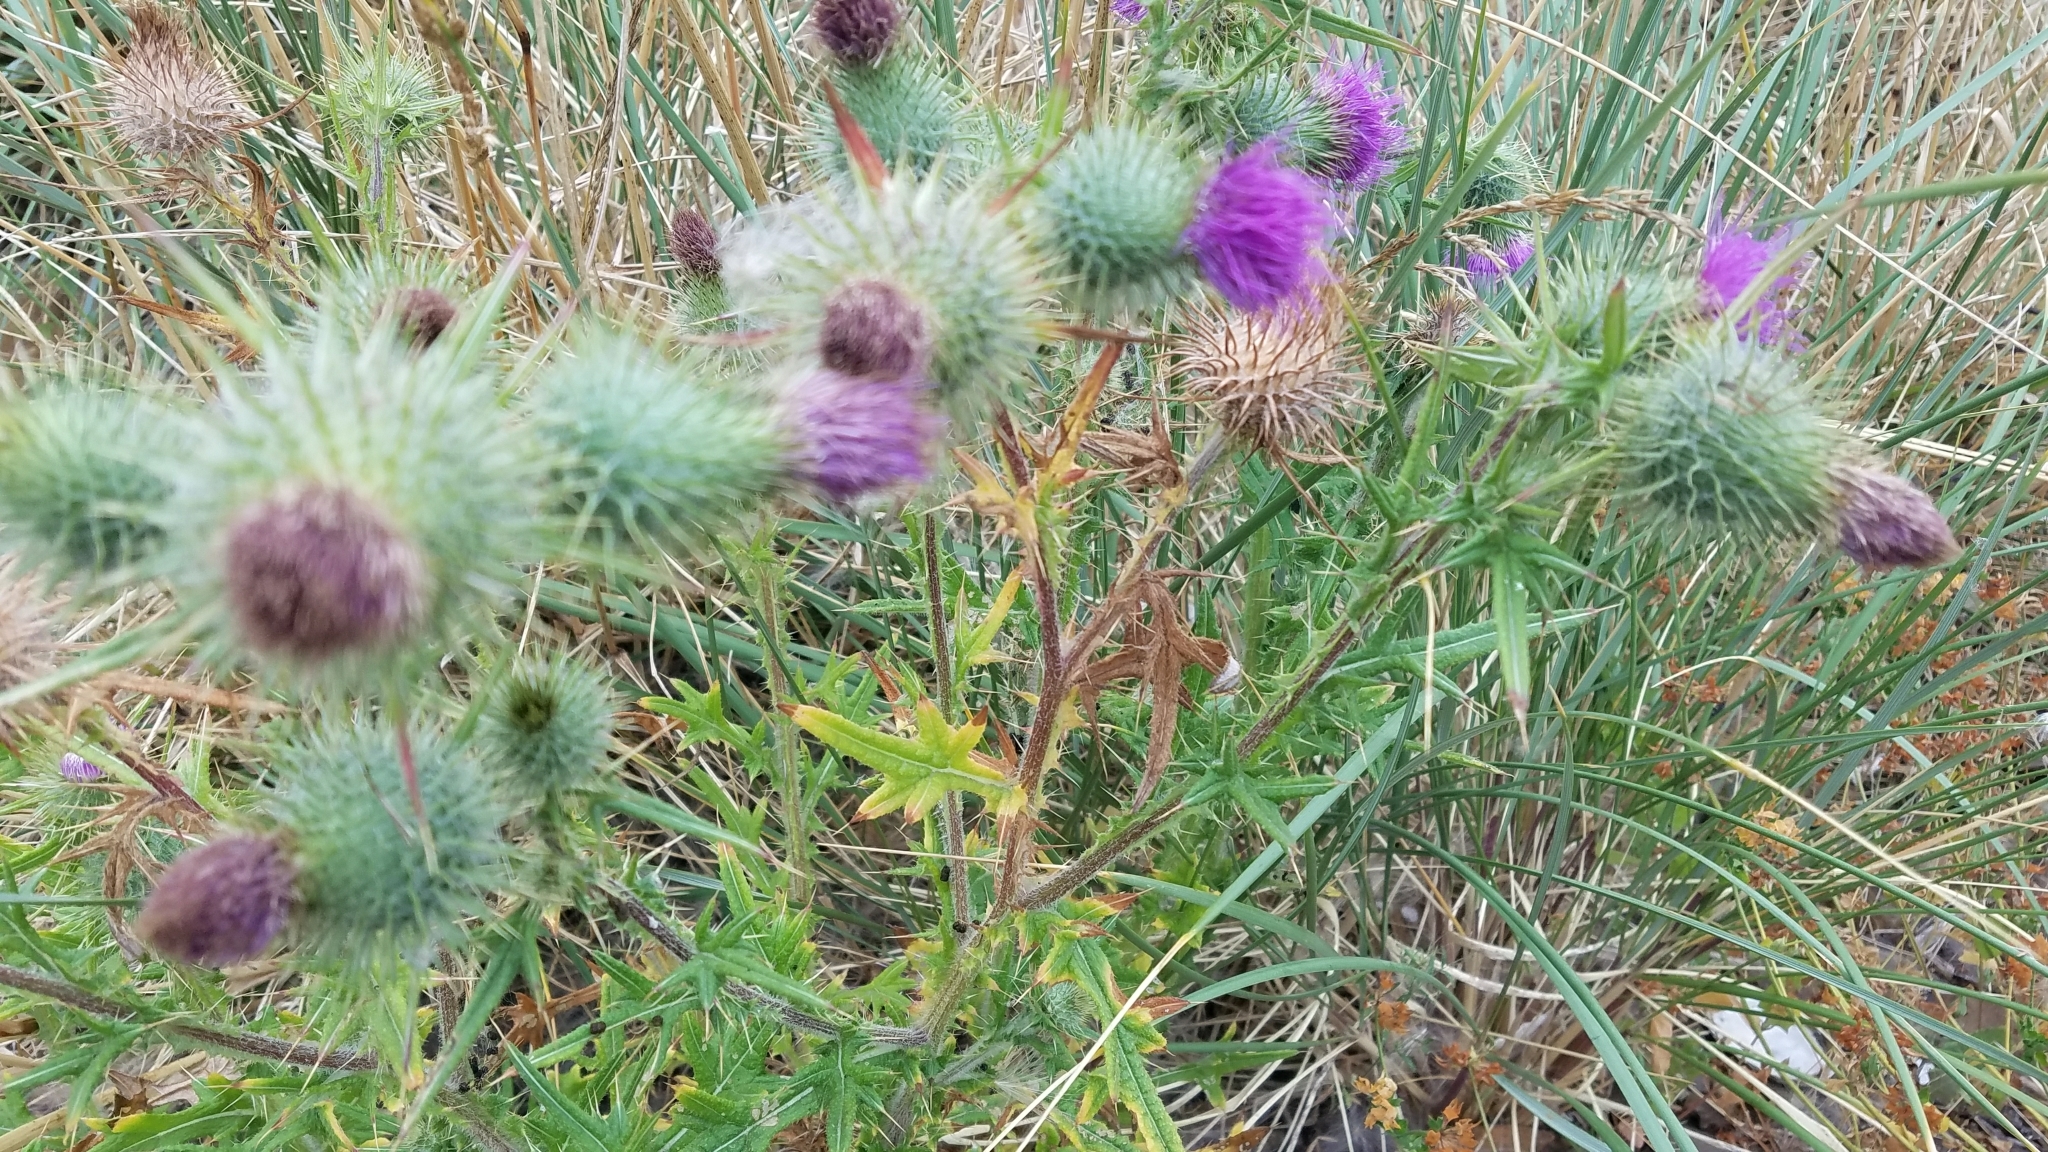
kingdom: Plantae
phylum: Tracheophyta
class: Magnoliopsida
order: Asterales
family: Asteraceae
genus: Cirsium
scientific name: Cirsium vulgare
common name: Bull thistle
